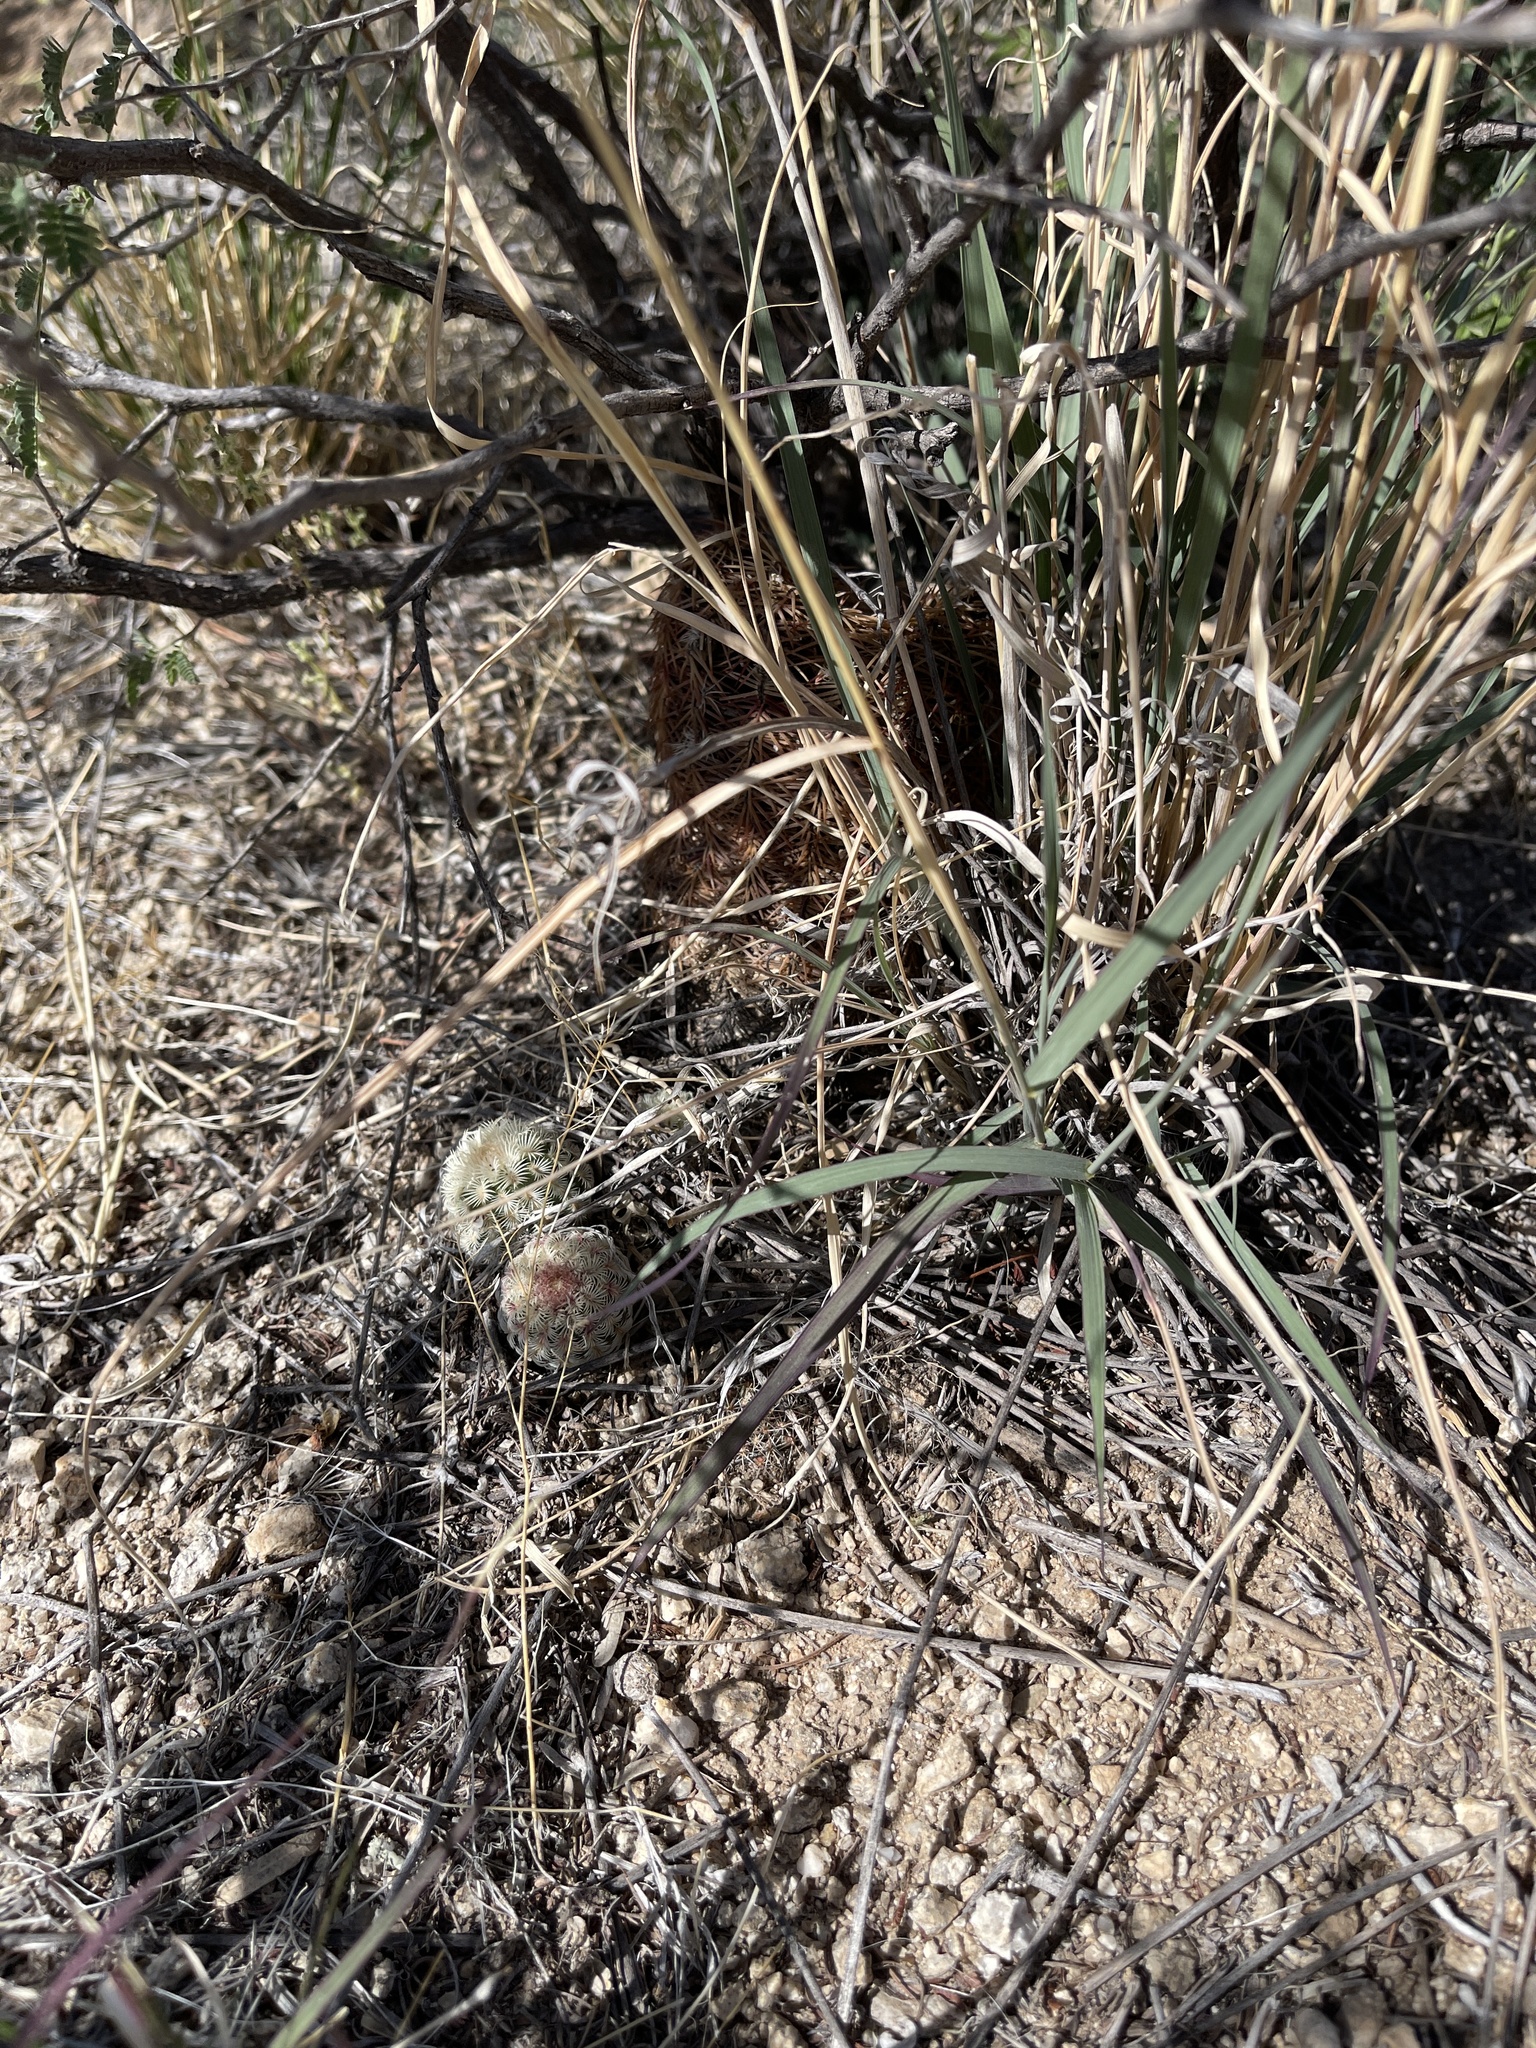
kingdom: Plantae
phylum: Tracheophyta
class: Magnoliopsida
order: Caryophyllales
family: Cactaceae
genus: Echinocereus
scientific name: Echinocereus rigidissimus
